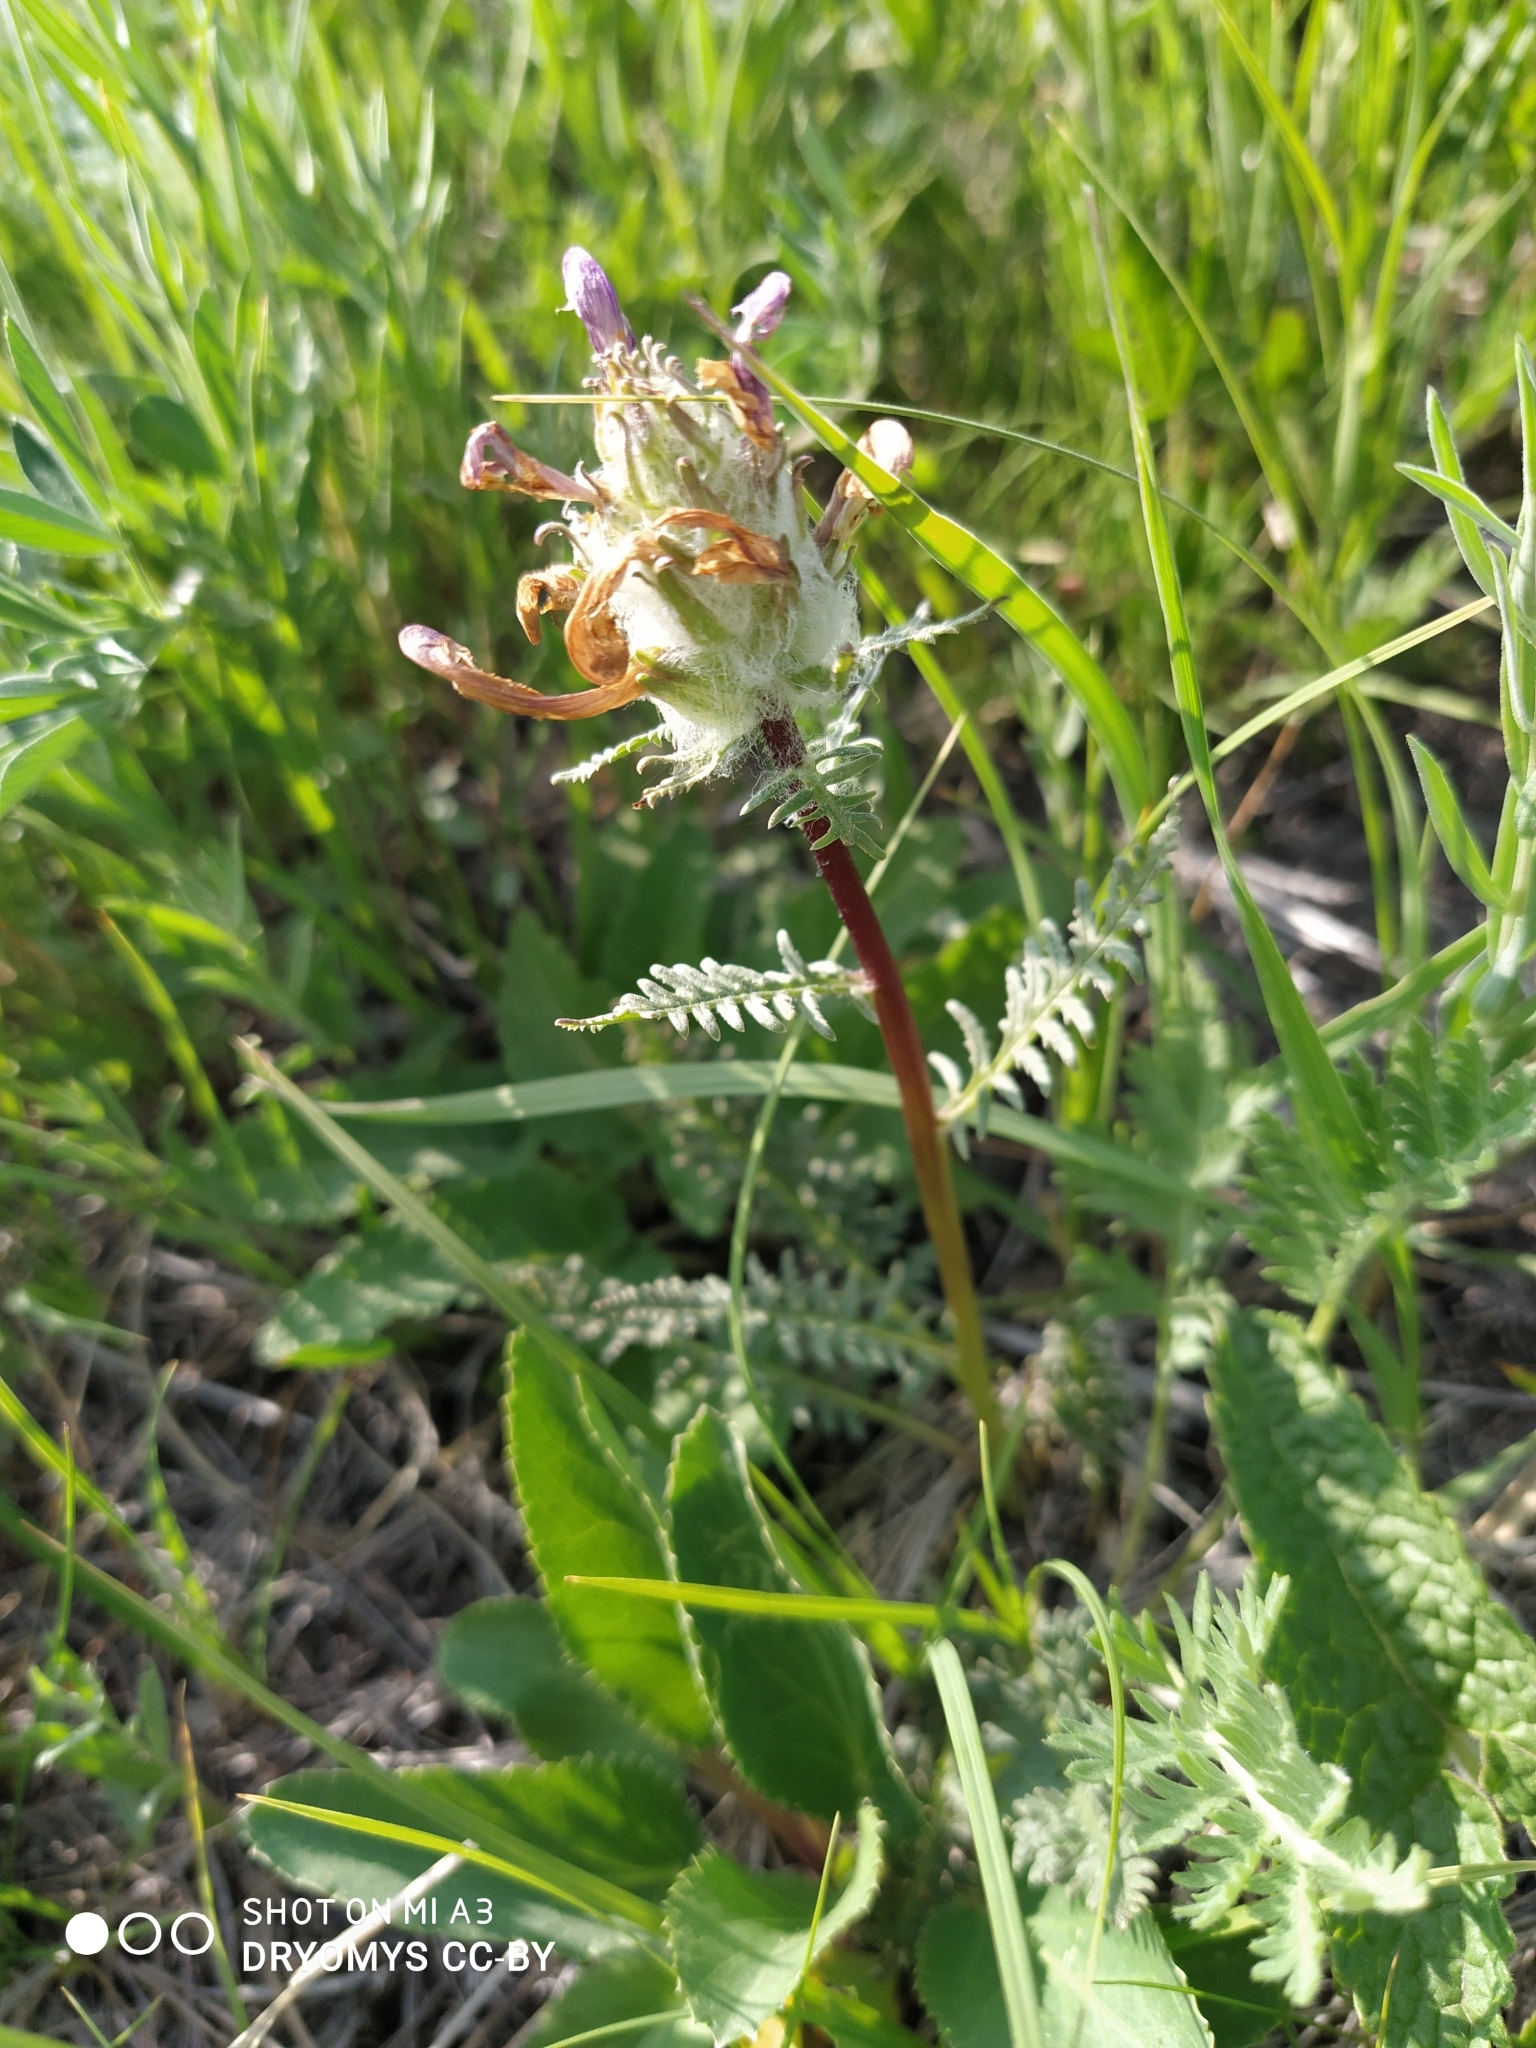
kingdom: Plantae
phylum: Tracheophyta
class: Magnoliopsida
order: Lamiales
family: Orobanchaceae
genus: Pedicularis
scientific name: Pedicularis dasystachys
